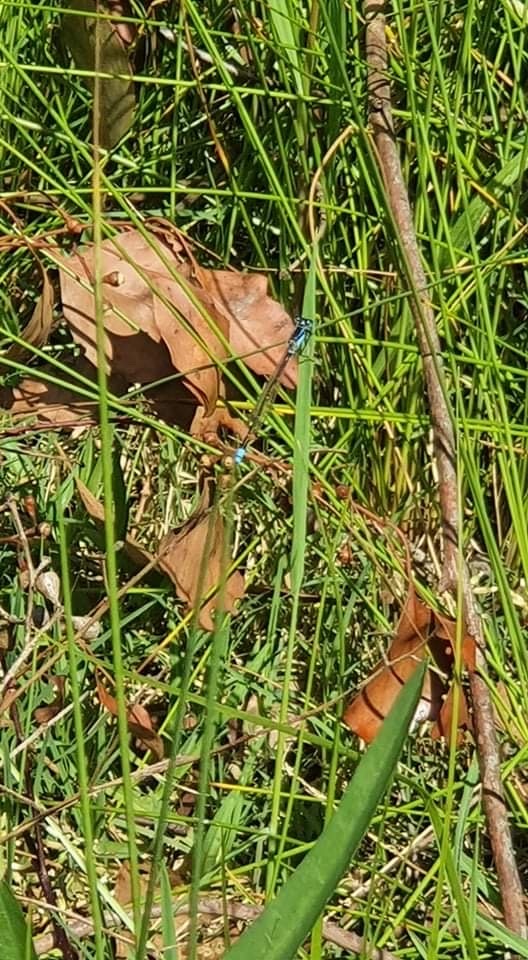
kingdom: Animalia
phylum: Arthropoda
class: Insecta
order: Odonata
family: Coenagrionidae
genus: Ischnura
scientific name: Ischnura heterosticta
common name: Common bluetail
